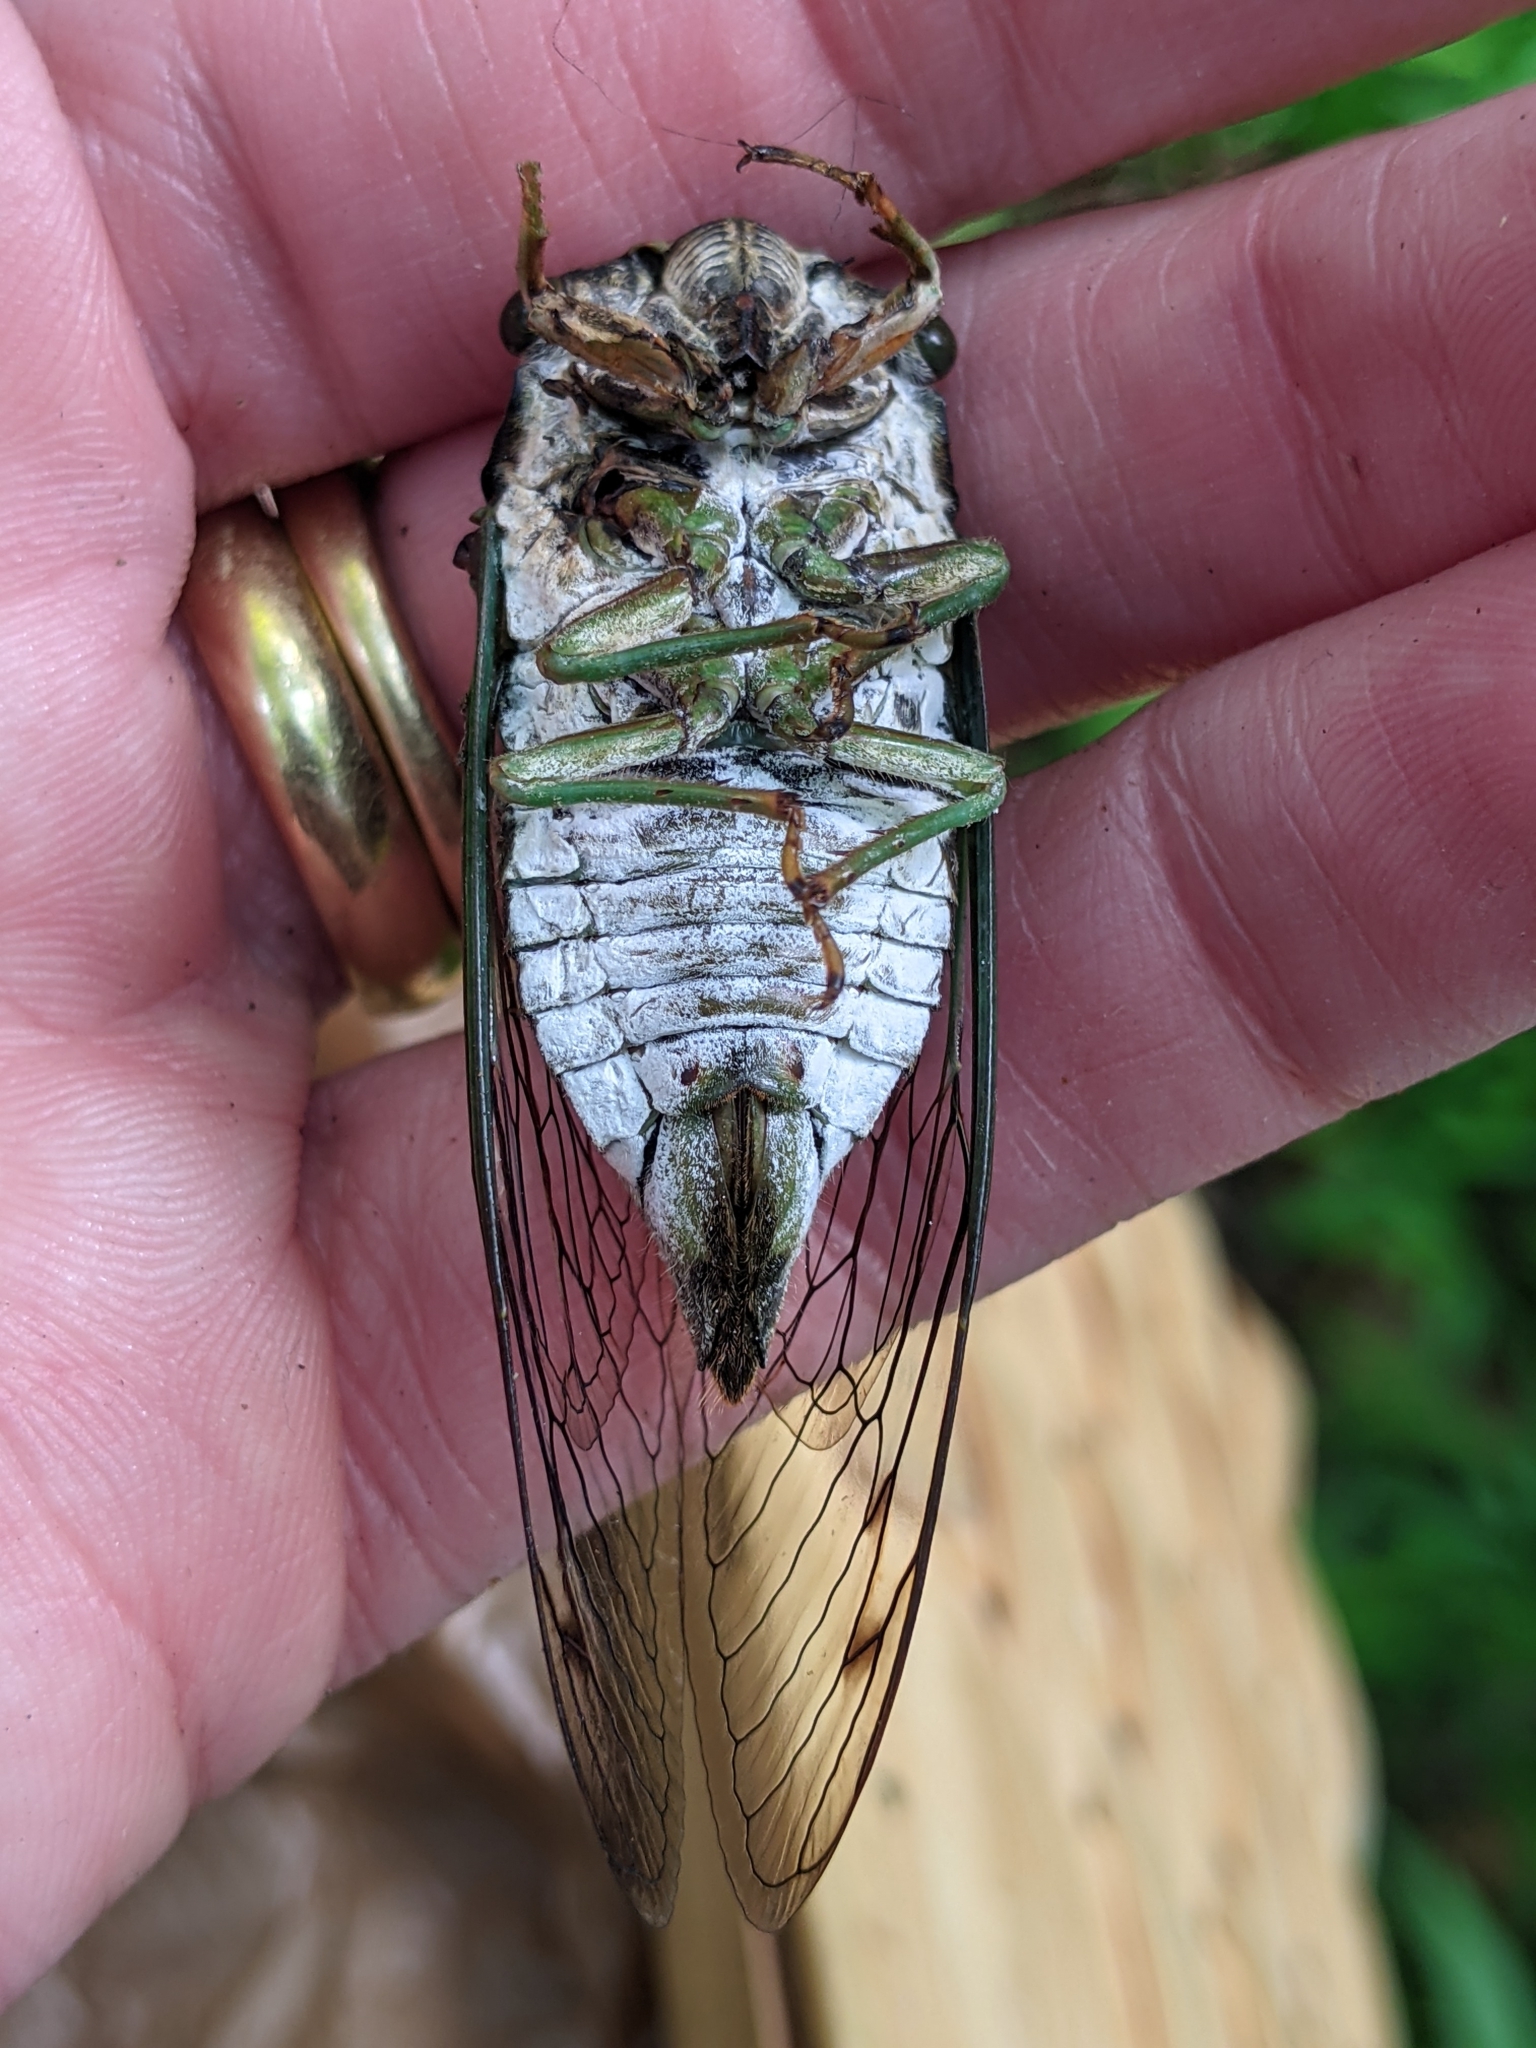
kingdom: Animalia
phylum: Arthropoda
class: Insecta
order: Hemiptera
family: Cicadidae
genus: Neotibicen
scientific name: Neotibicen tibicen
